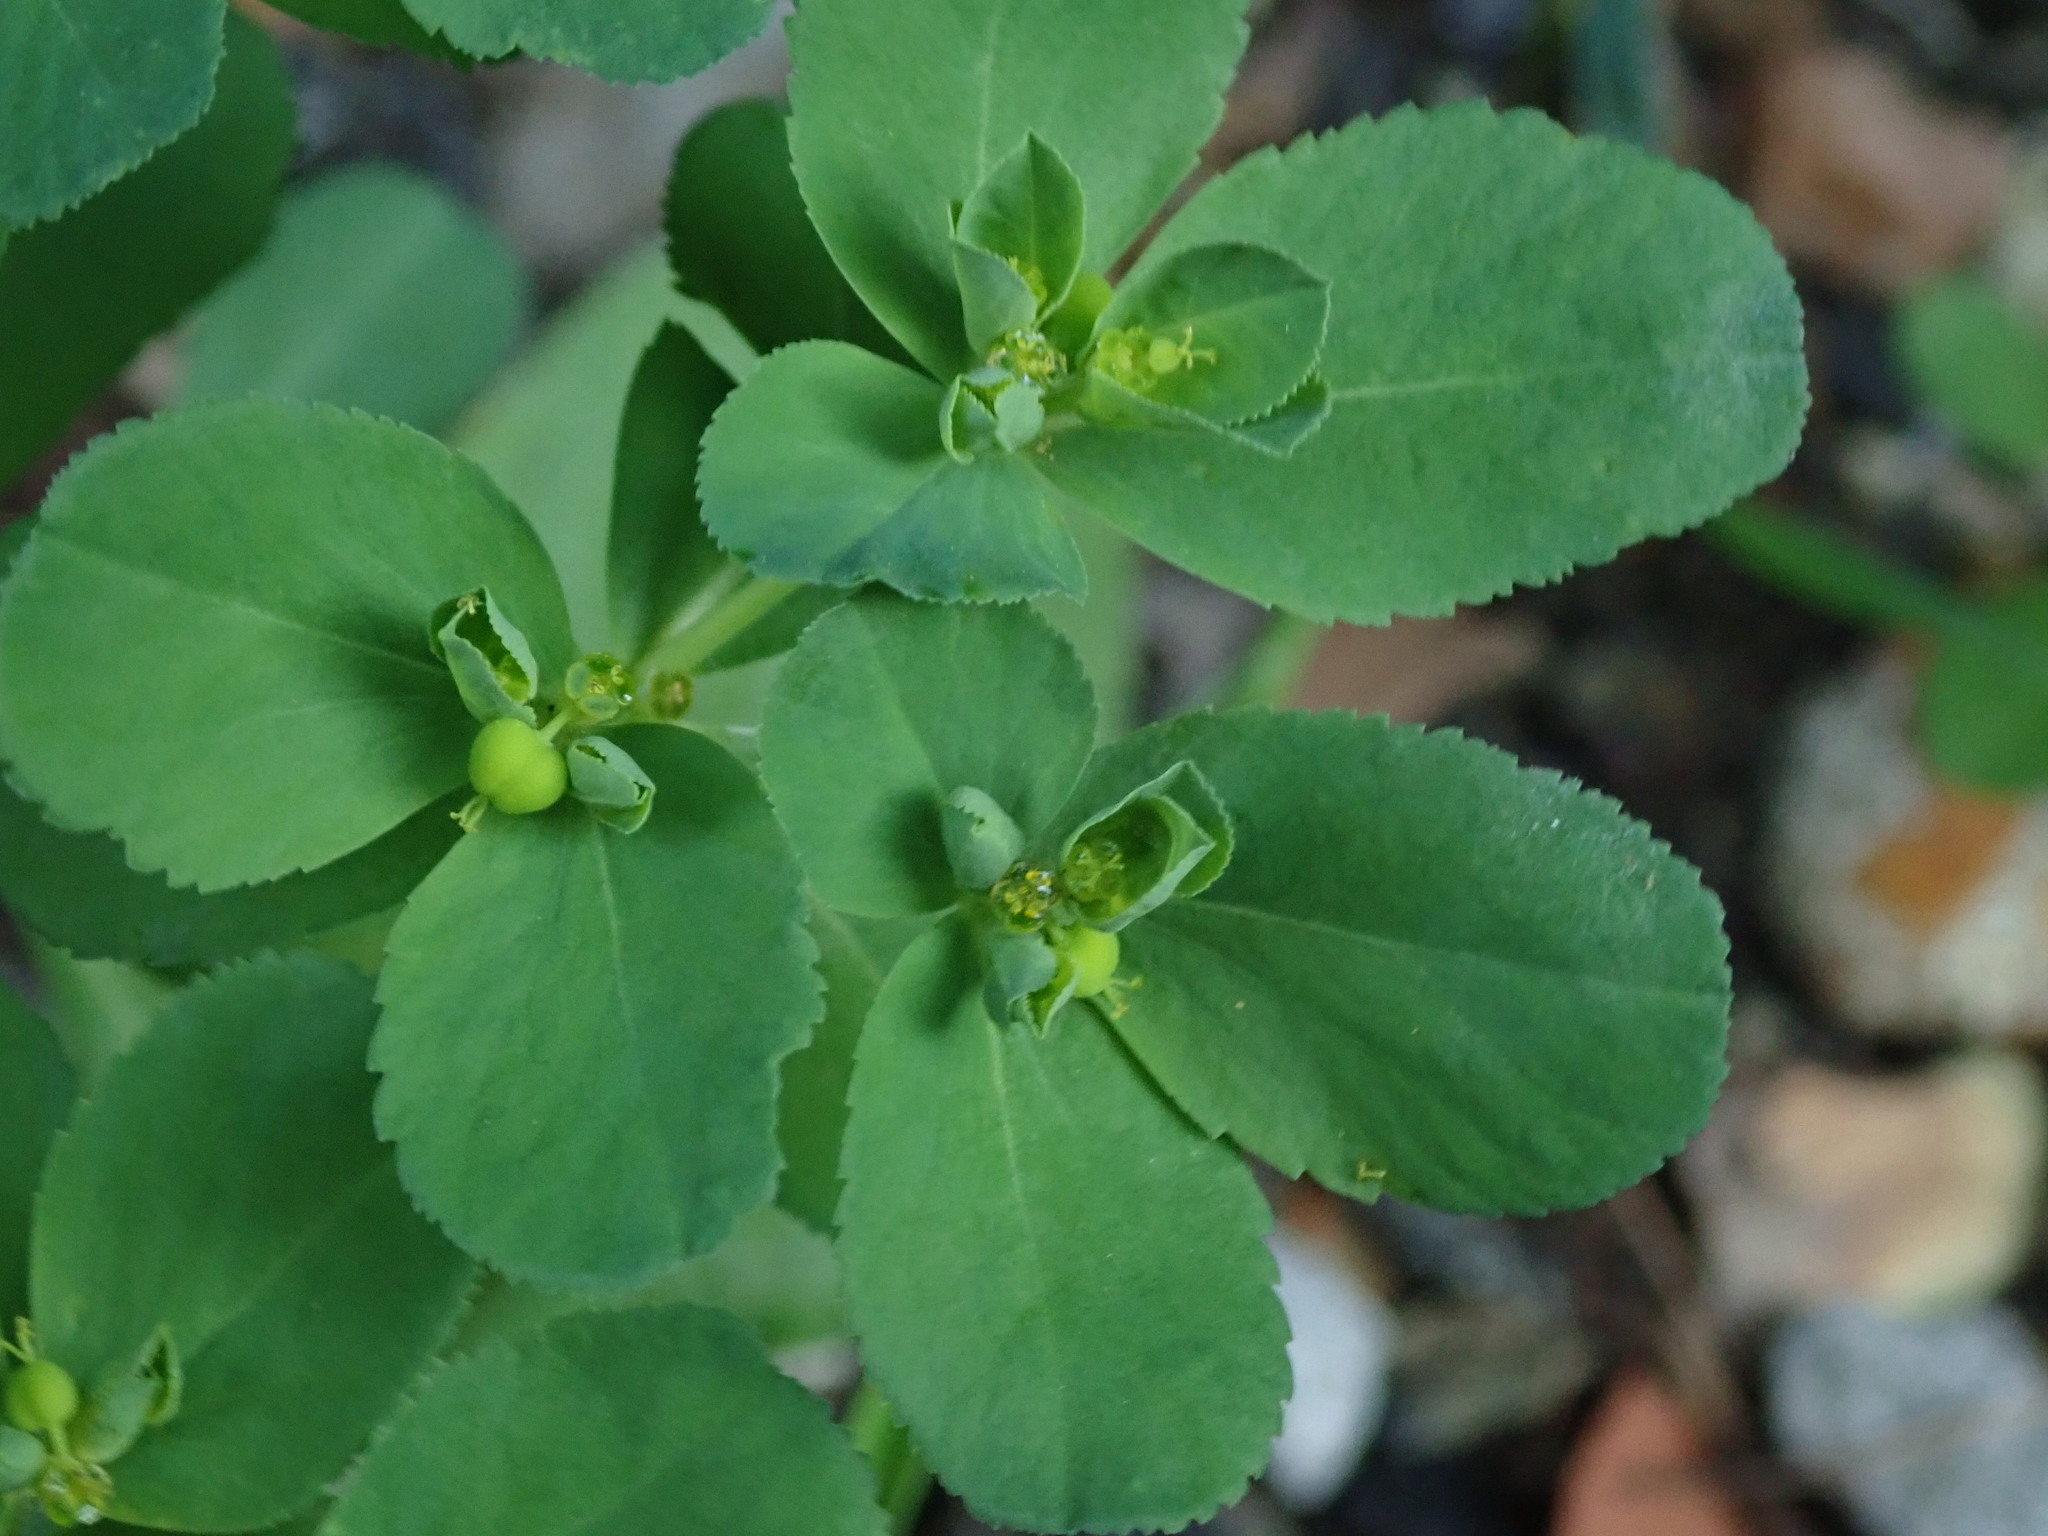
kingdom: Plantae
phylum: Tracheophyta
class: Magnoliopsida
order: Malpighiales
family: Euphorbiaceae
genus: Euphorbia
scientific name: Euphorbia helioscopia
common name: Sun spurge
